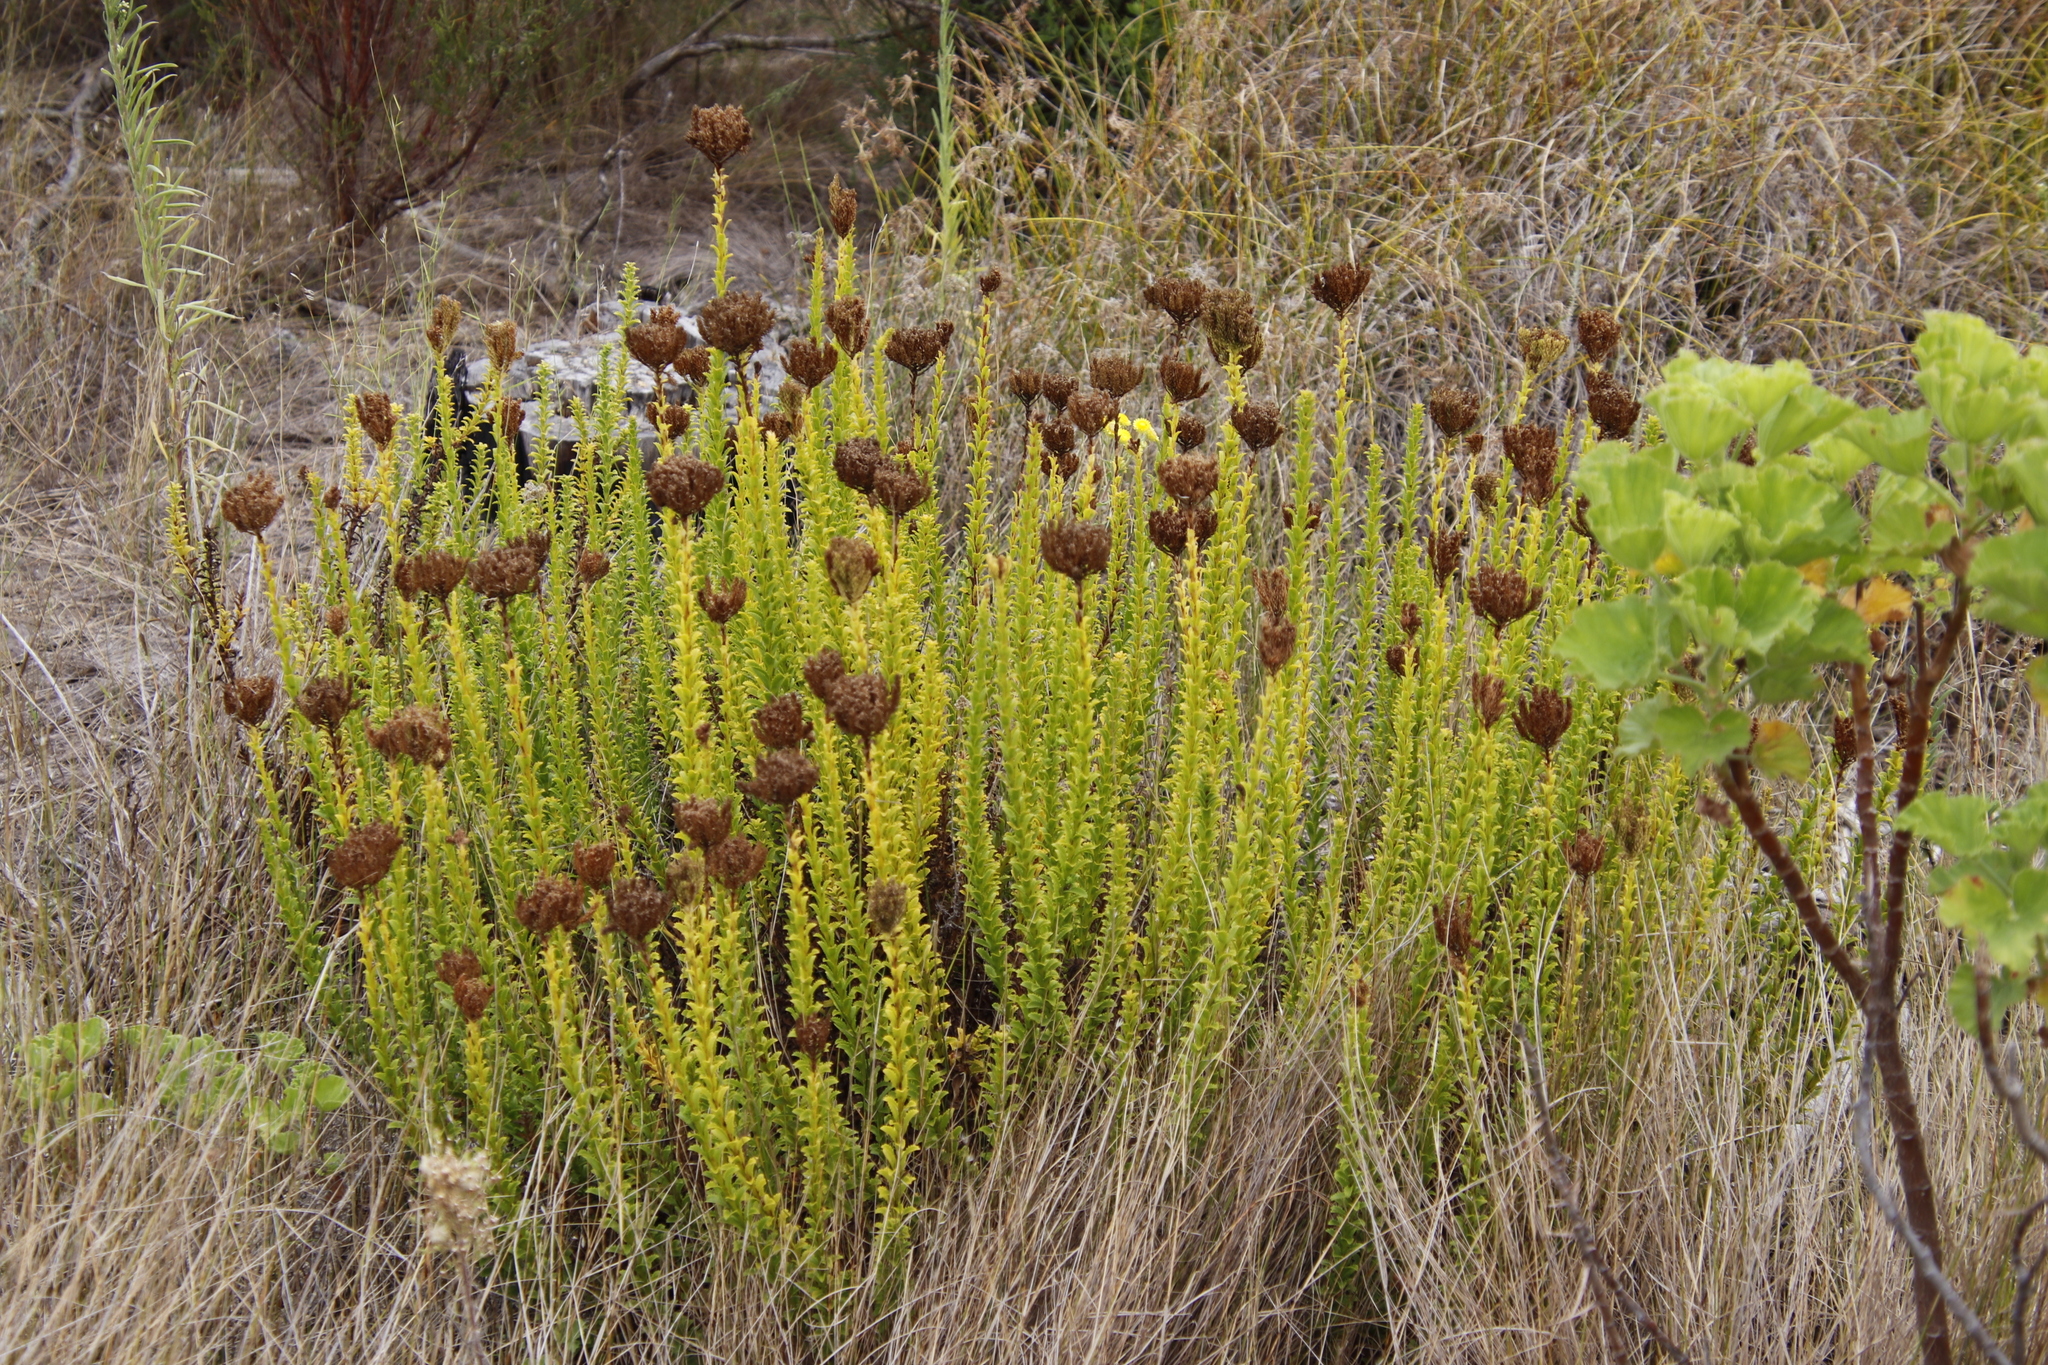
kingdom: Plantae
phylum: Tracheophyta
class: Magnoliopsida
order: Lamiales
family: Scrophulariaceae
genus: Pseudoselago
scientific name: Pseudoselago serrata
